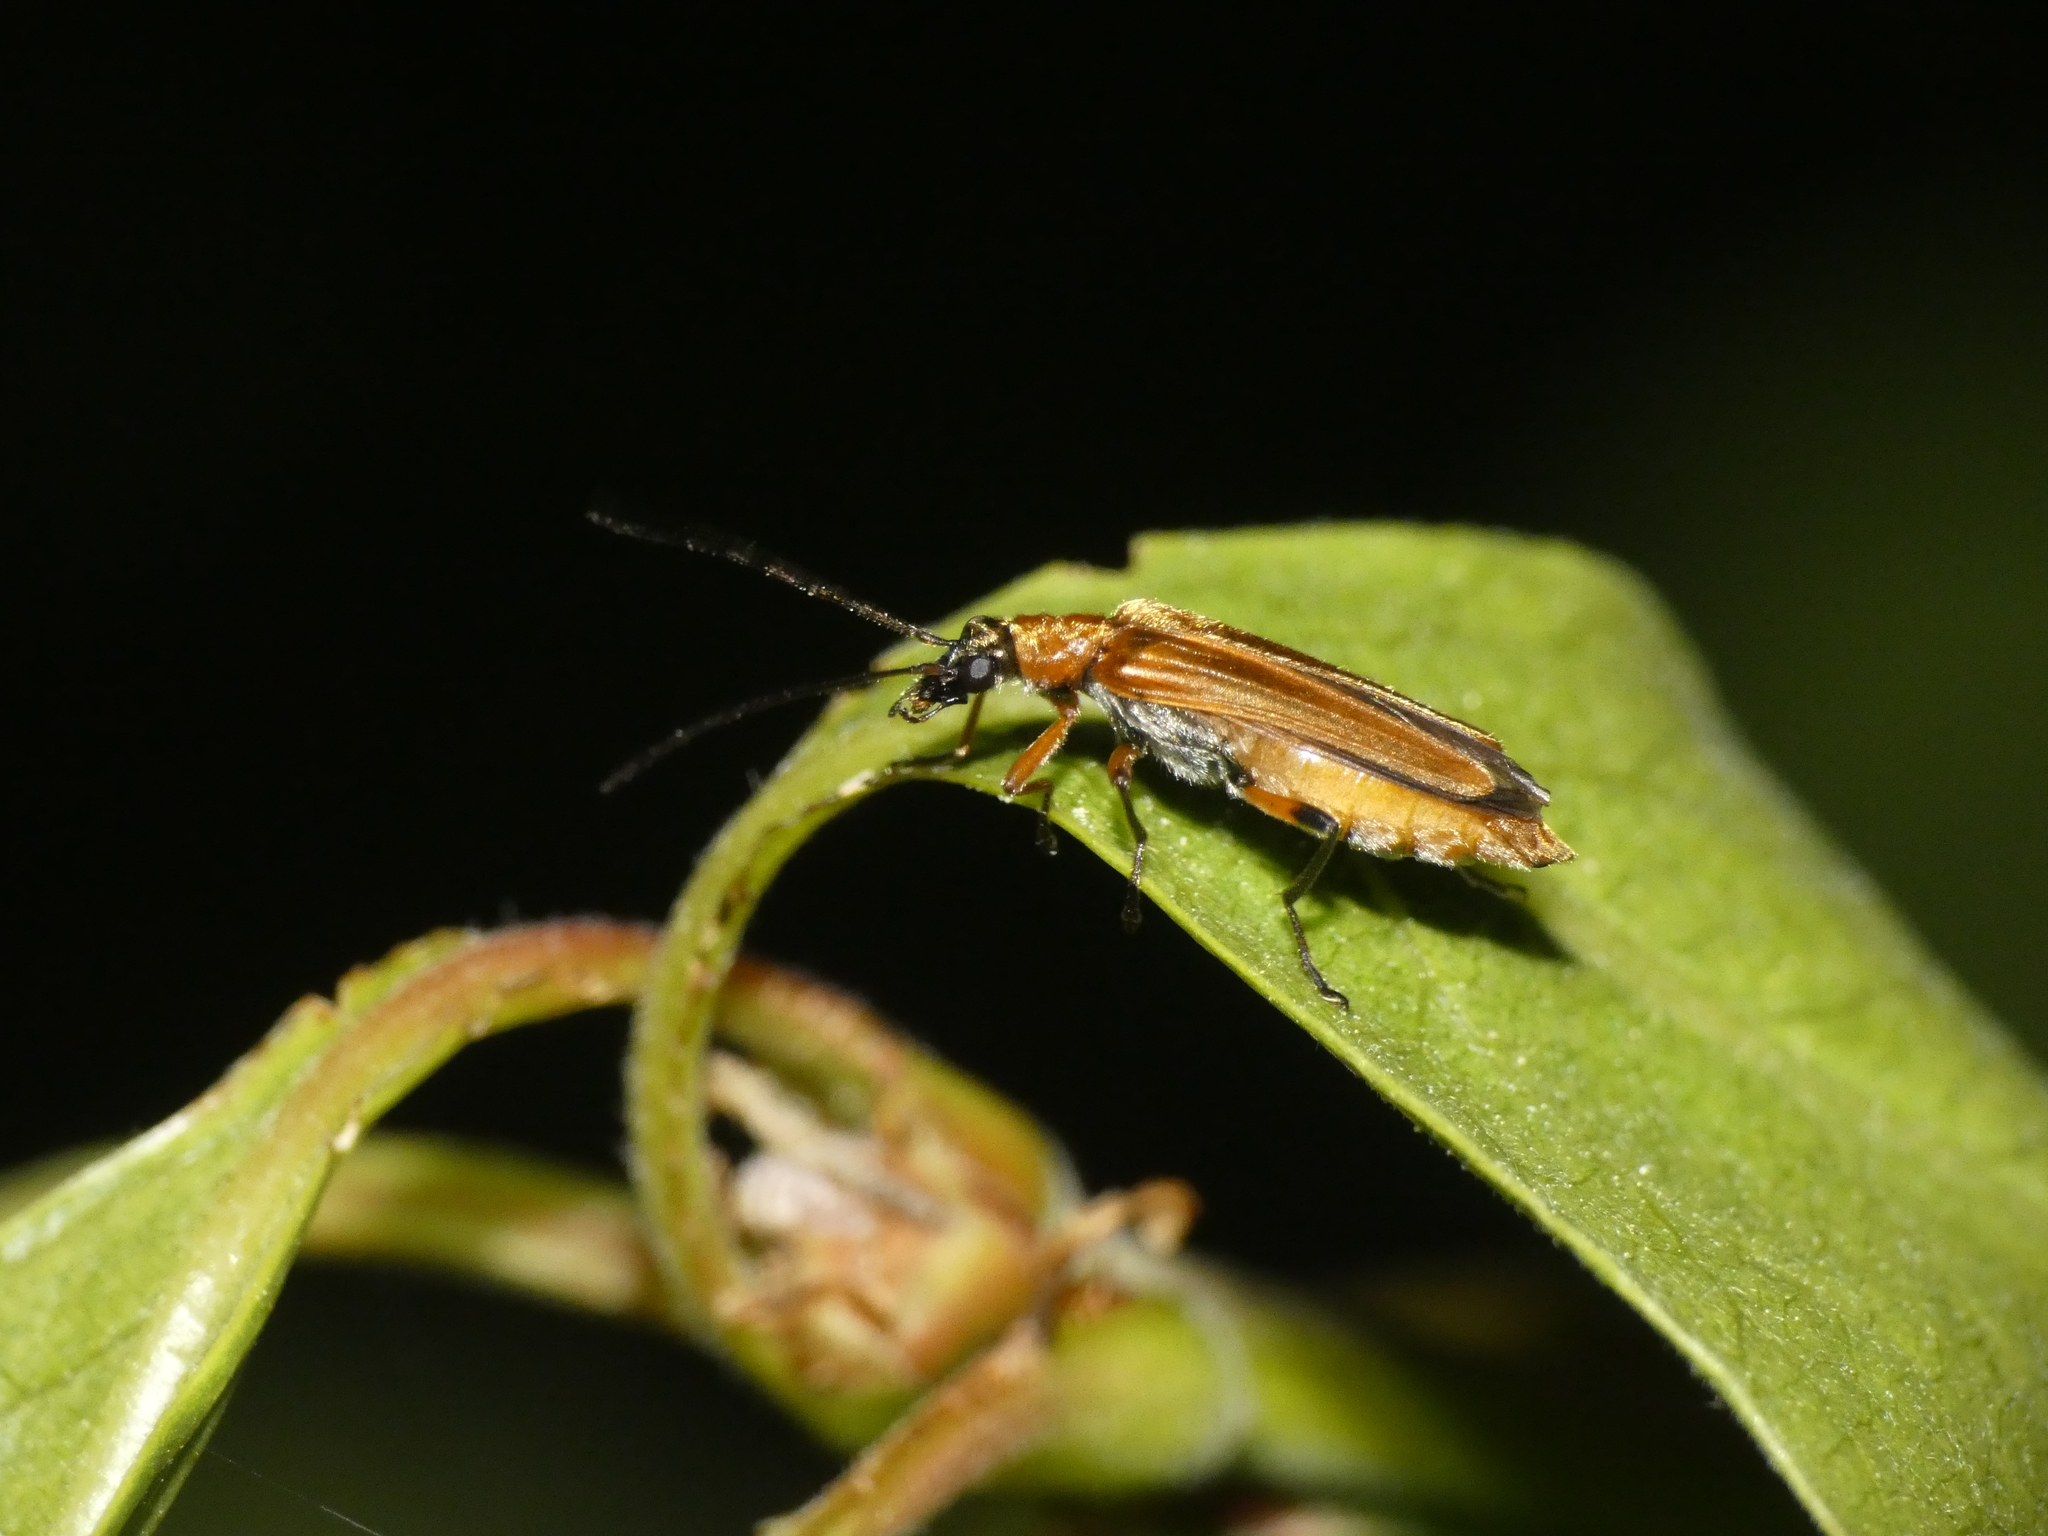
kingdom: Animalia
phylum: Arthropoda
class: Insecta
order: Coleoptera
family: Oedemeridae
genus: Oedemera
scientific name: Oedemera podagrariae
